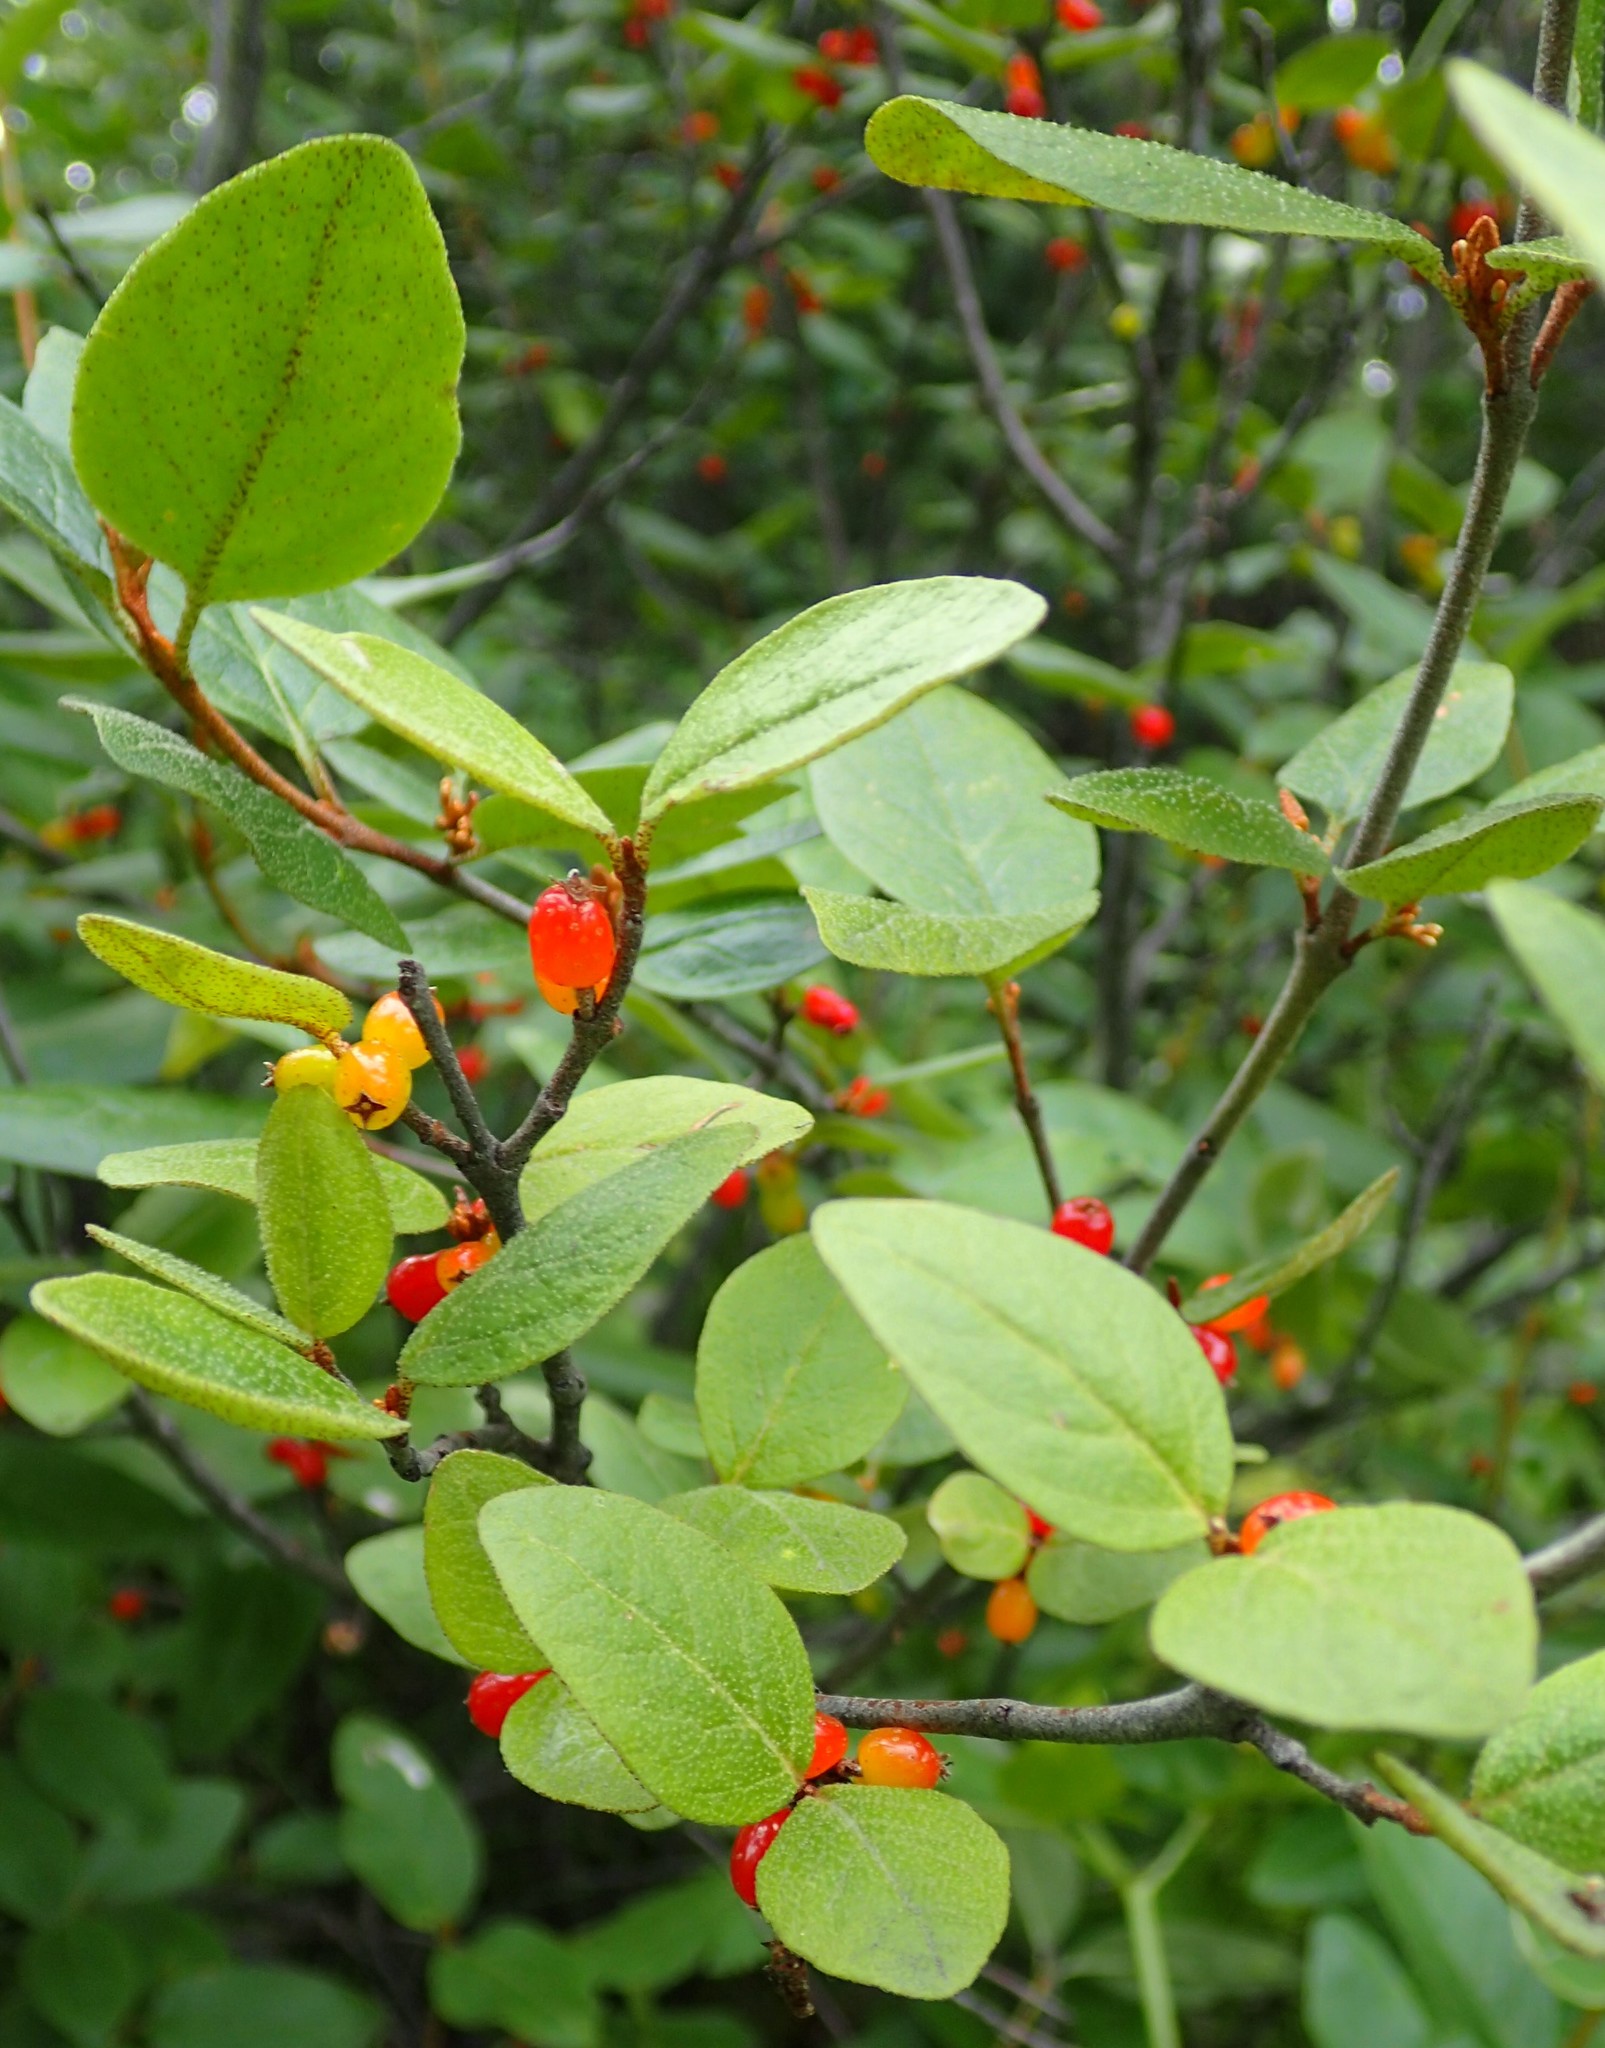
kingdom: Plantae
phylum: Tracheophyta
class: Magnoliopsida
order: Rosales
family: Elaeagnaceae
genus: Shepherdia
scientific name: Shepherdia canadensis
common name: Soapberry
